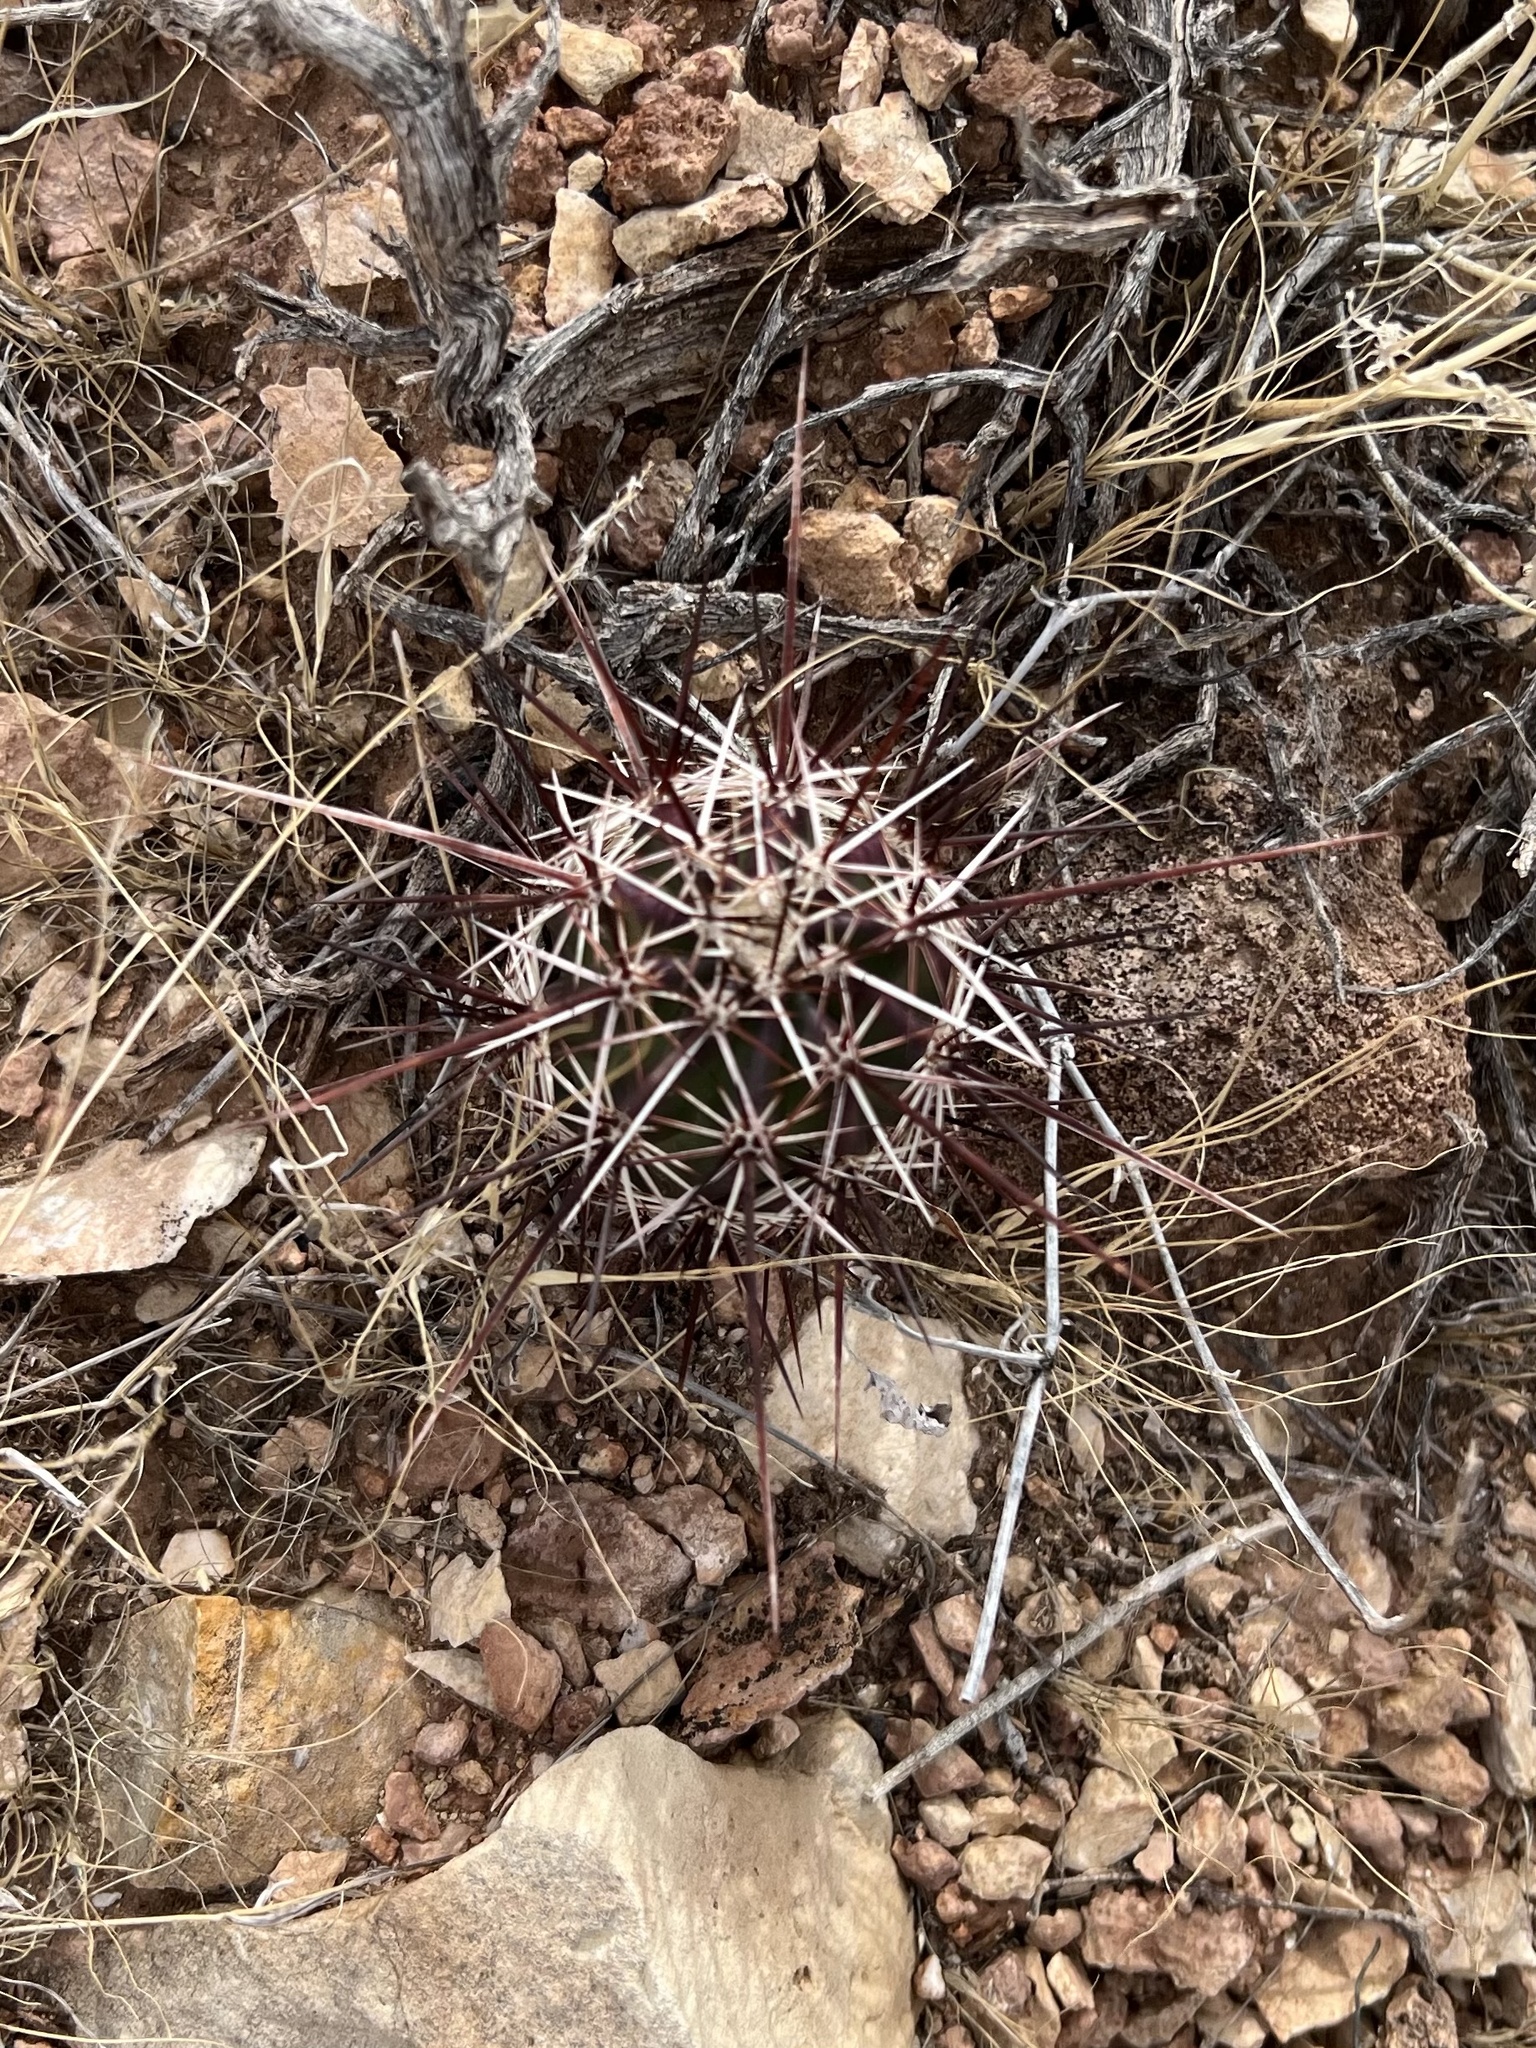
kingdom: Plantae
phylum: Tracheophyta
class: Magnoliopsida
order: Caryophyllales
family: Cactaceae
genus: Echinocereus
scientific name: Echinocereus engelmannii
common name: Engelmann's hedgehog cactus
